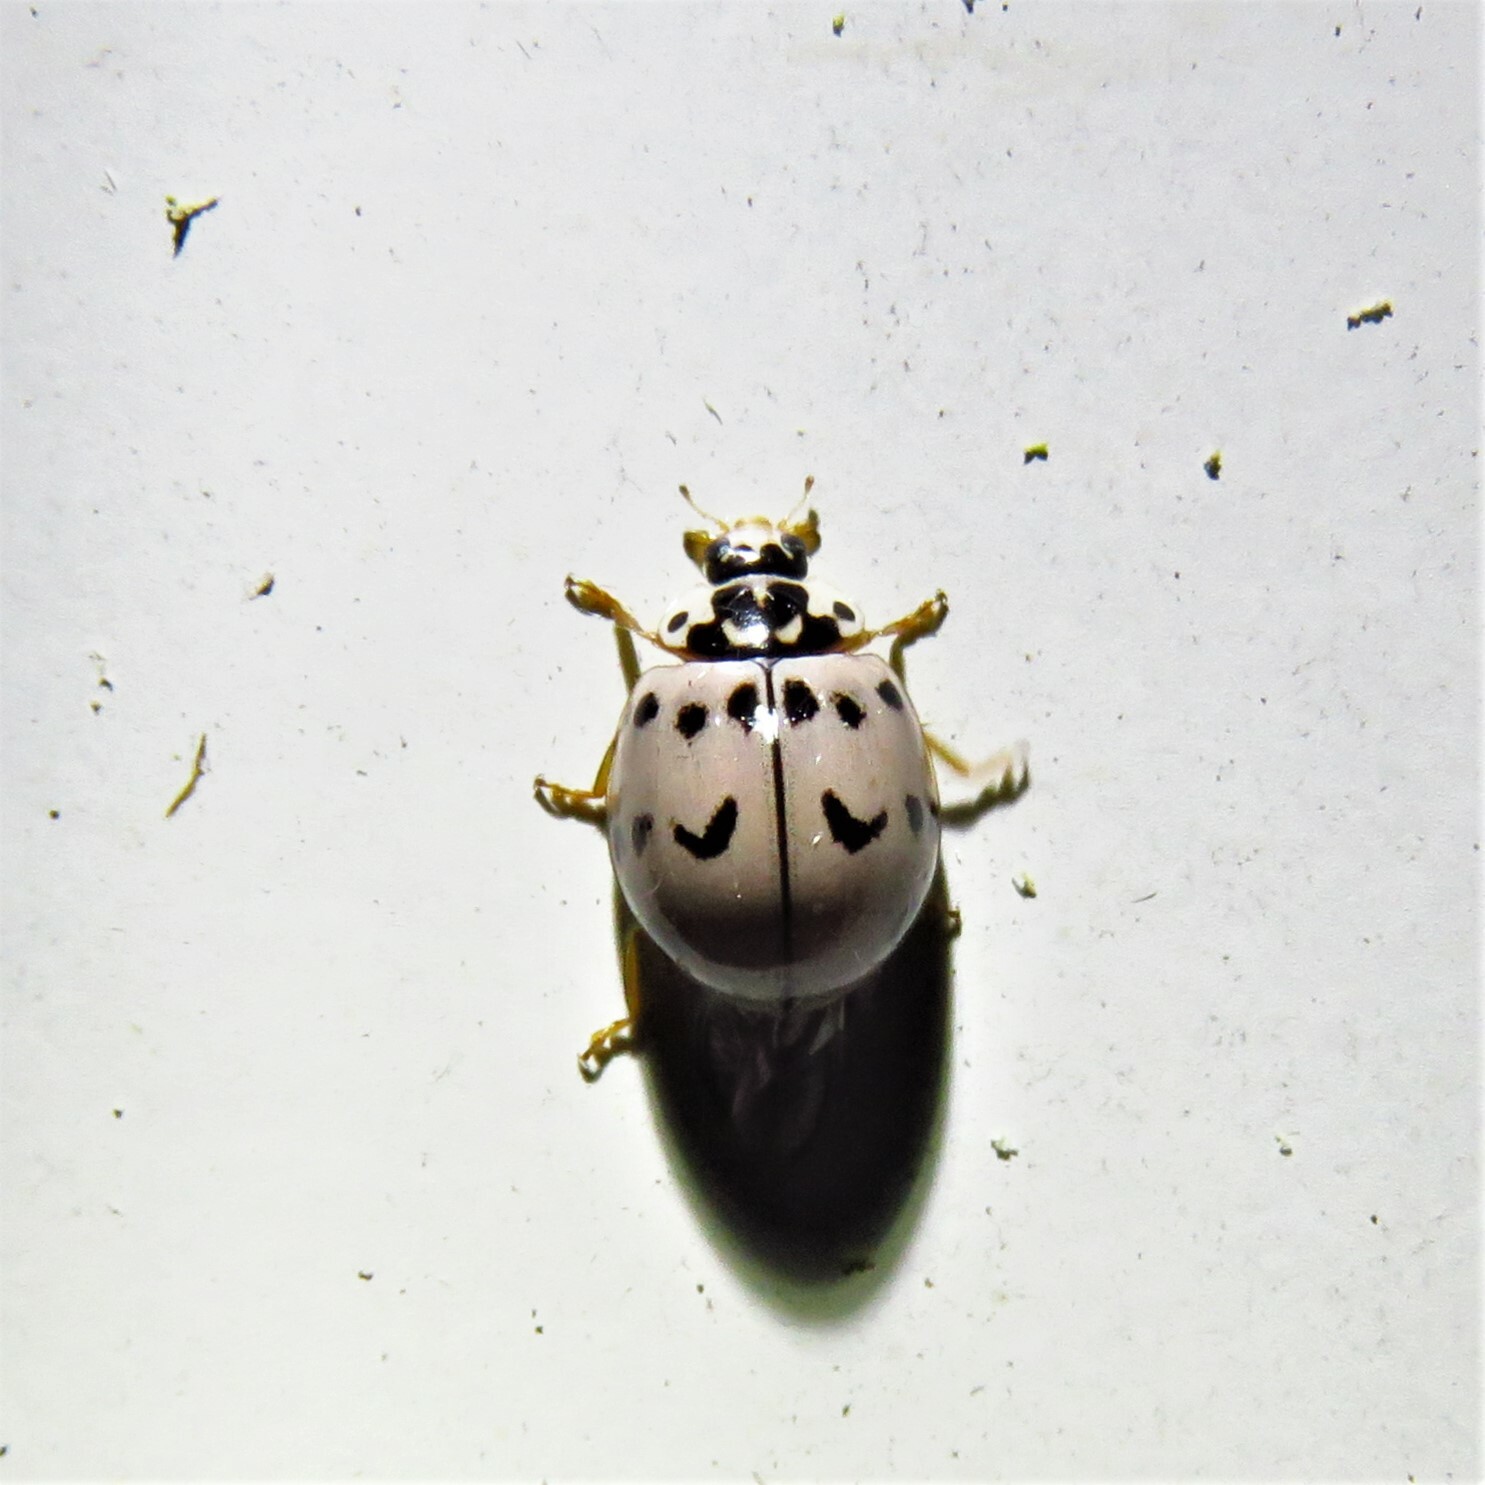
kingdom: Animalia
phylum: Arthropoda
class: Insecta
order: Coleoptera
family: Coccinellidae
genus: Olla
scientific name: Olla v-nigrum
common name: Ashy gray lady beetle
